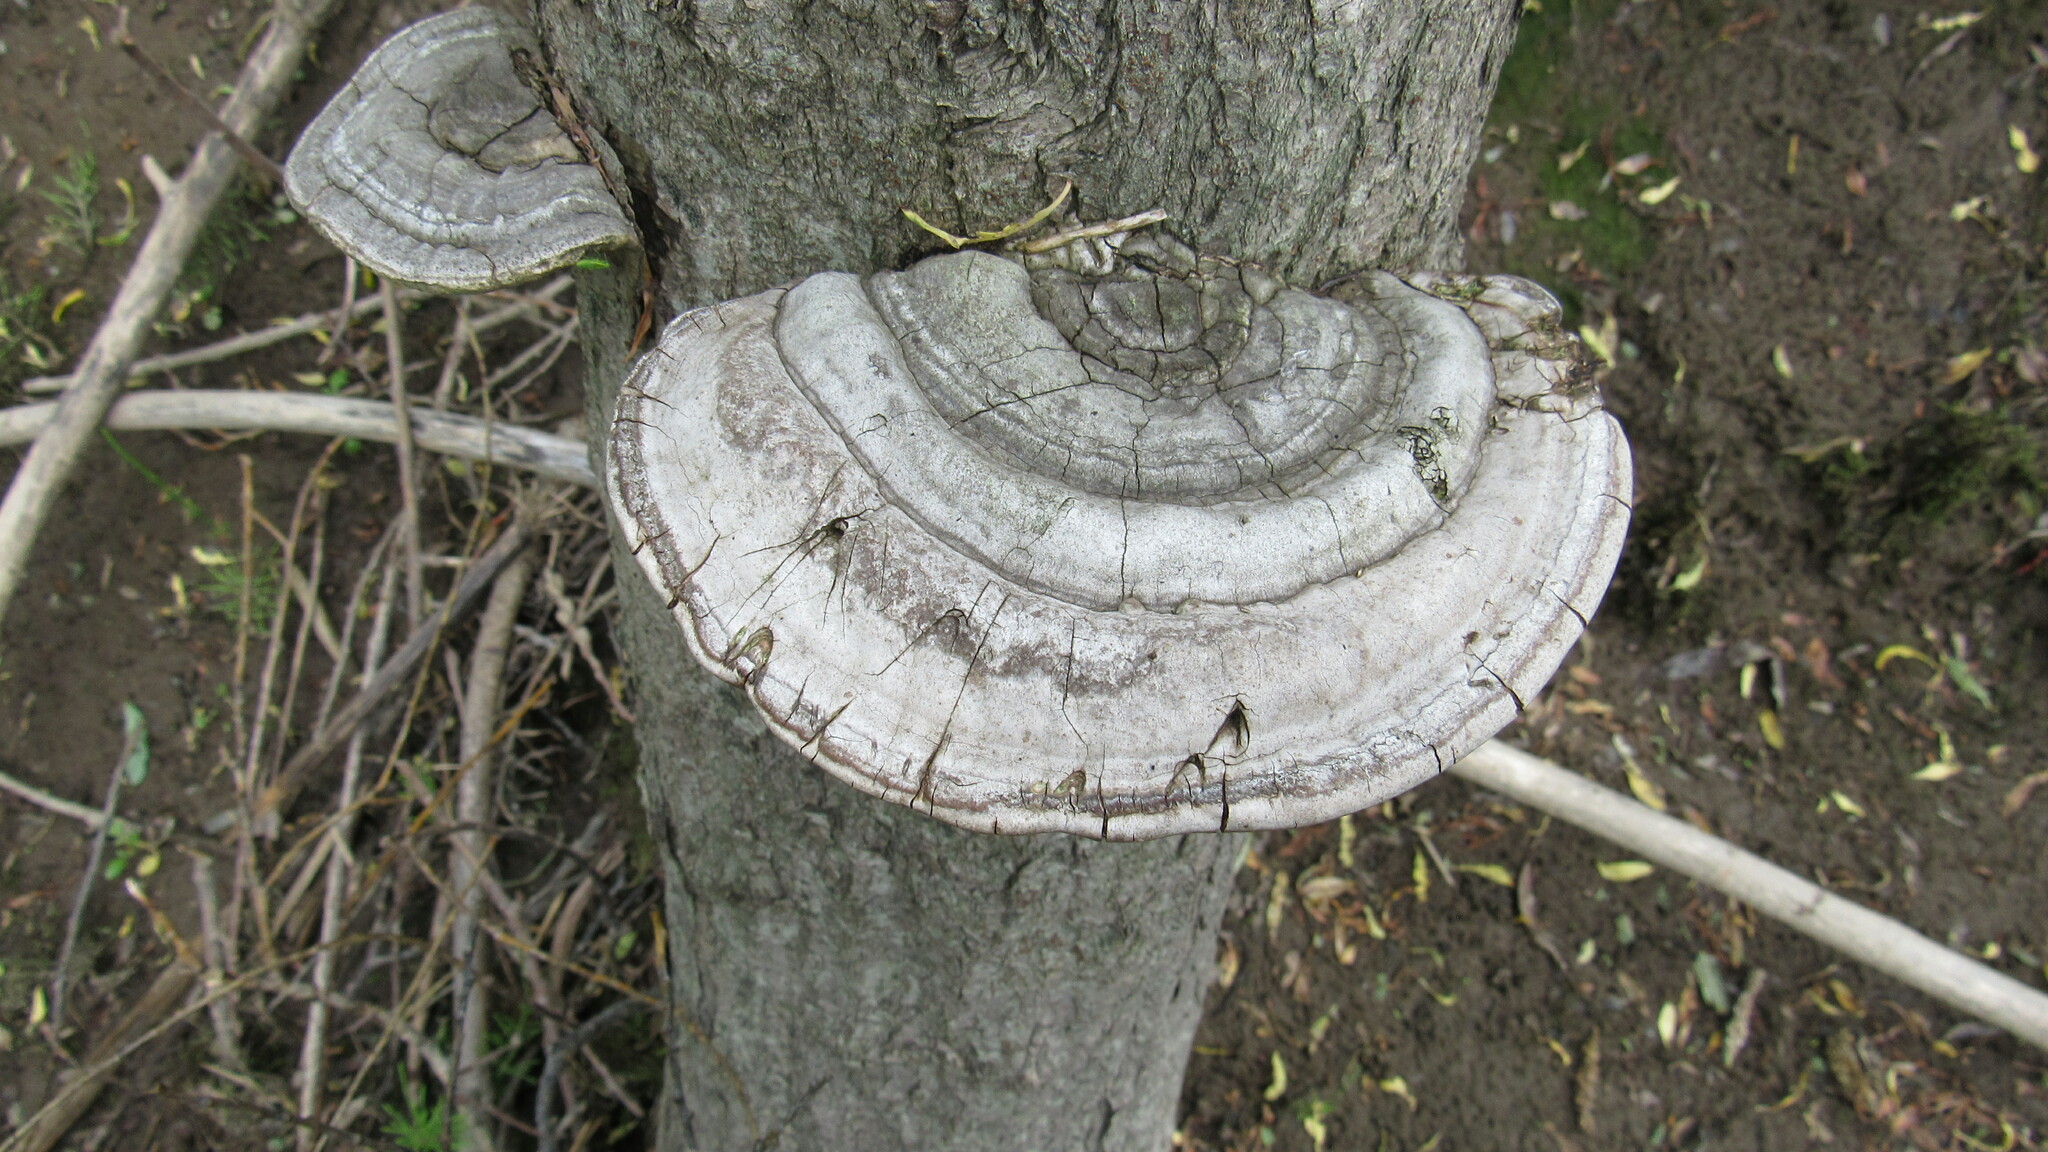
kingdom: Fungi
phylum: Basidiomycota
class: Agaricomycetes
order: Polyporales
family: Polyporaceae
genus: Fomes
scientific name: Fomes fomentarius
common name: Hoof fungus
